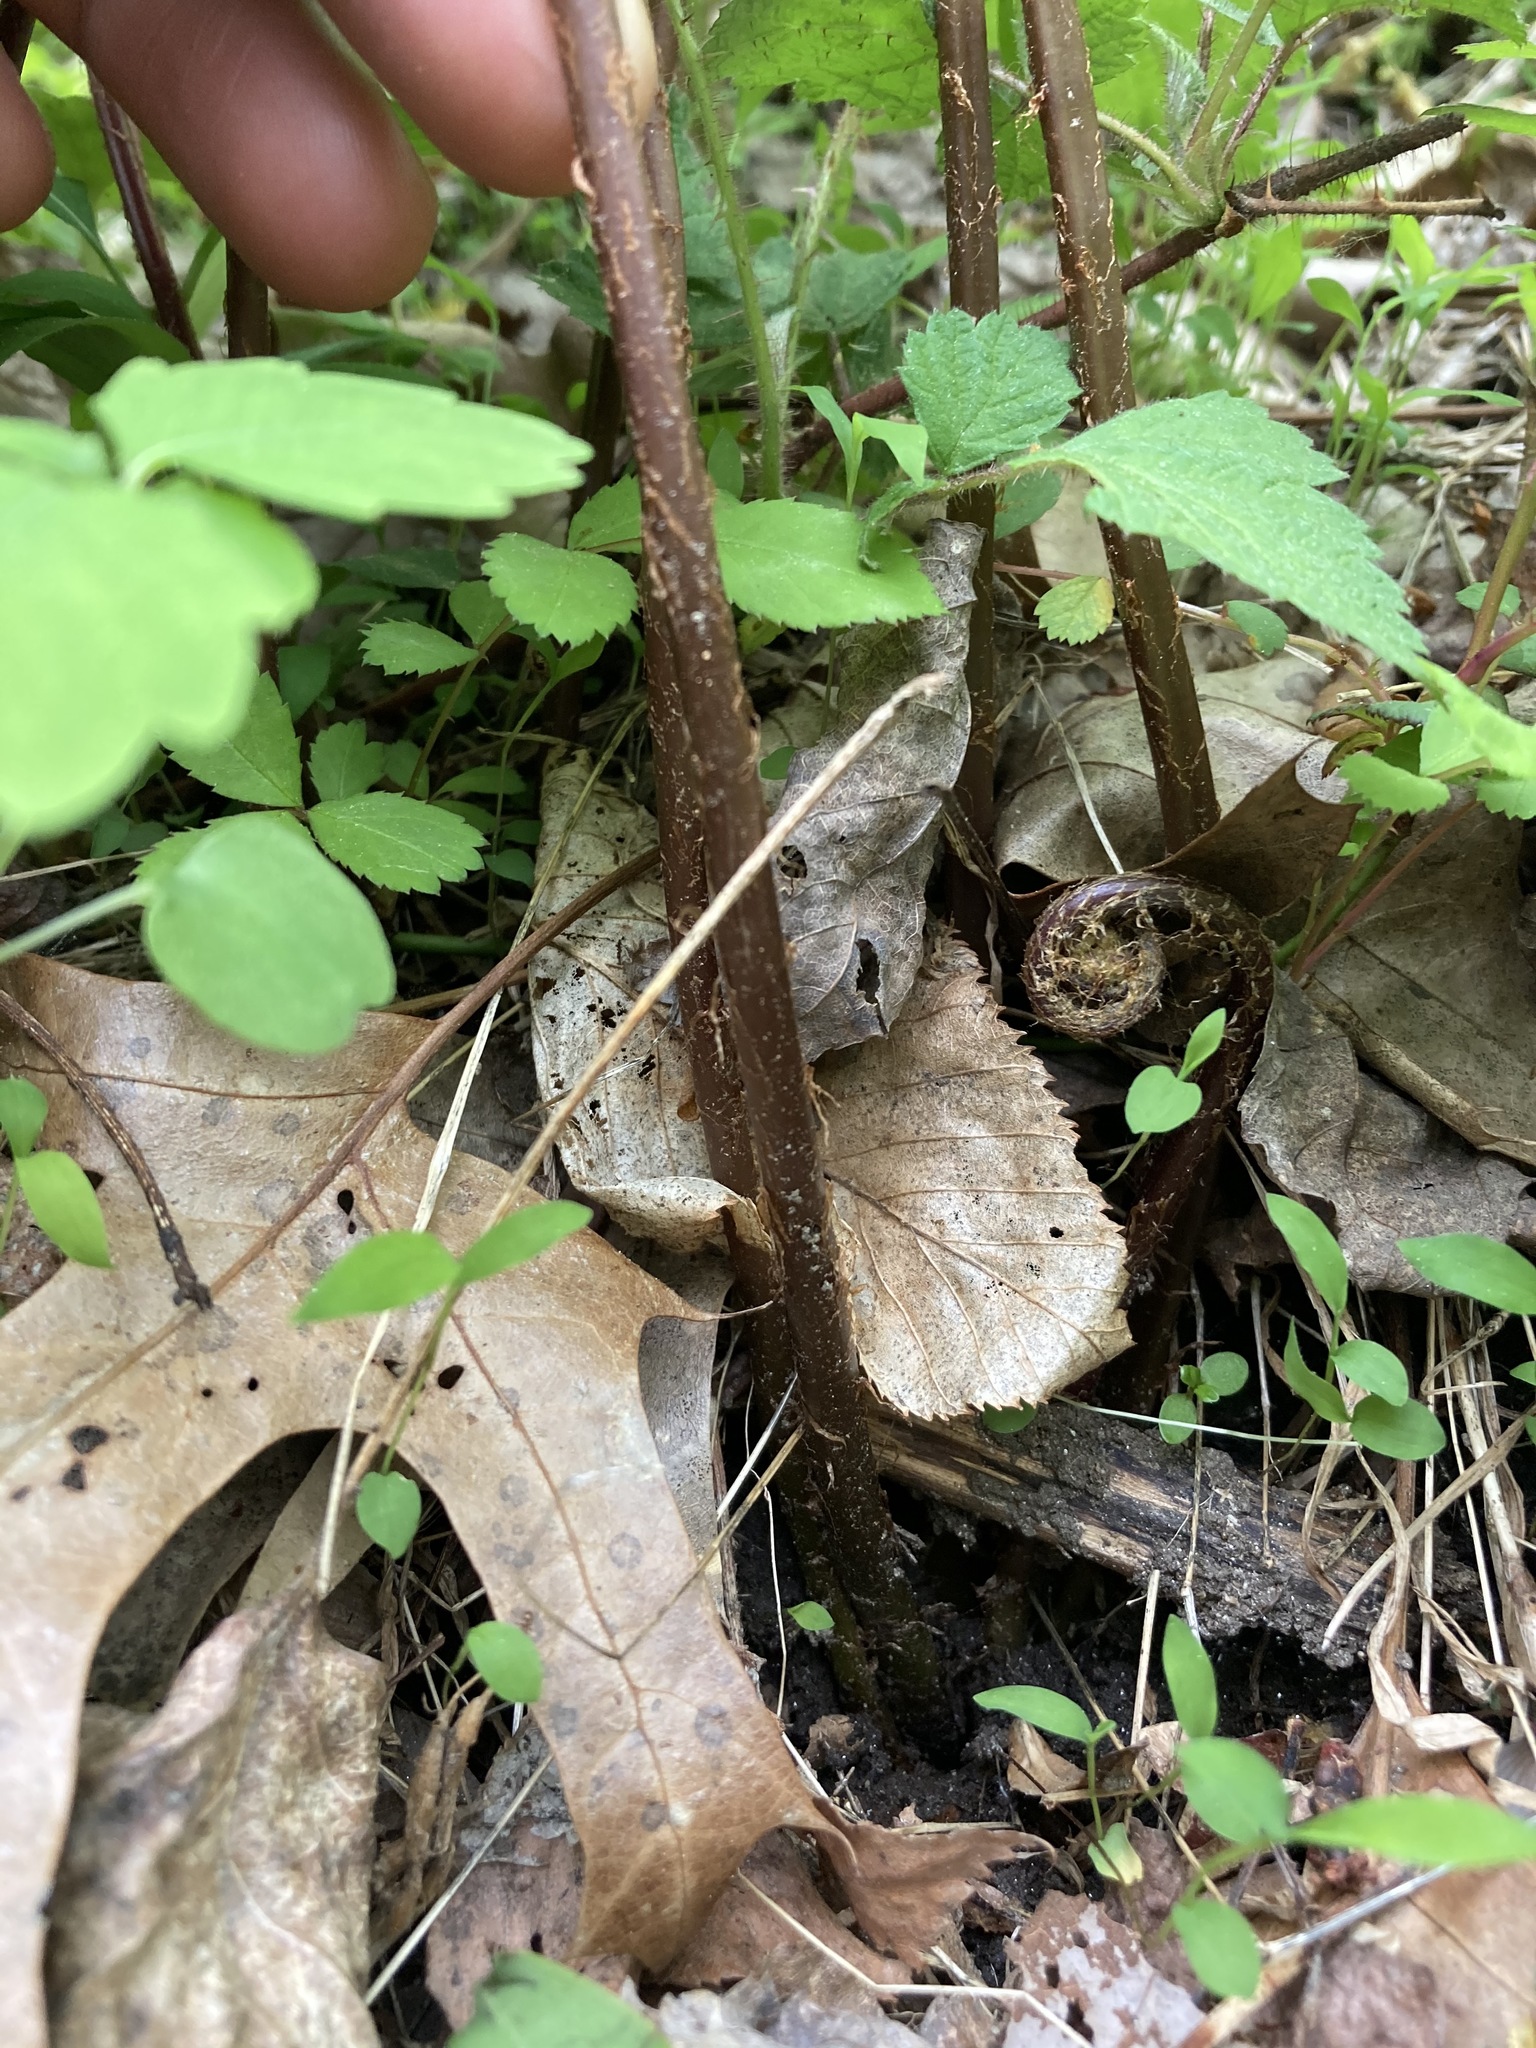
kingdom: Plantae
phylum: Tracheophyta
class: Polypodiopsida
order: Polypodiales
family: Athyriaceae
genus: Athyrium
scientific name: Athyrium asplenioides
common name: Southern lady fern
